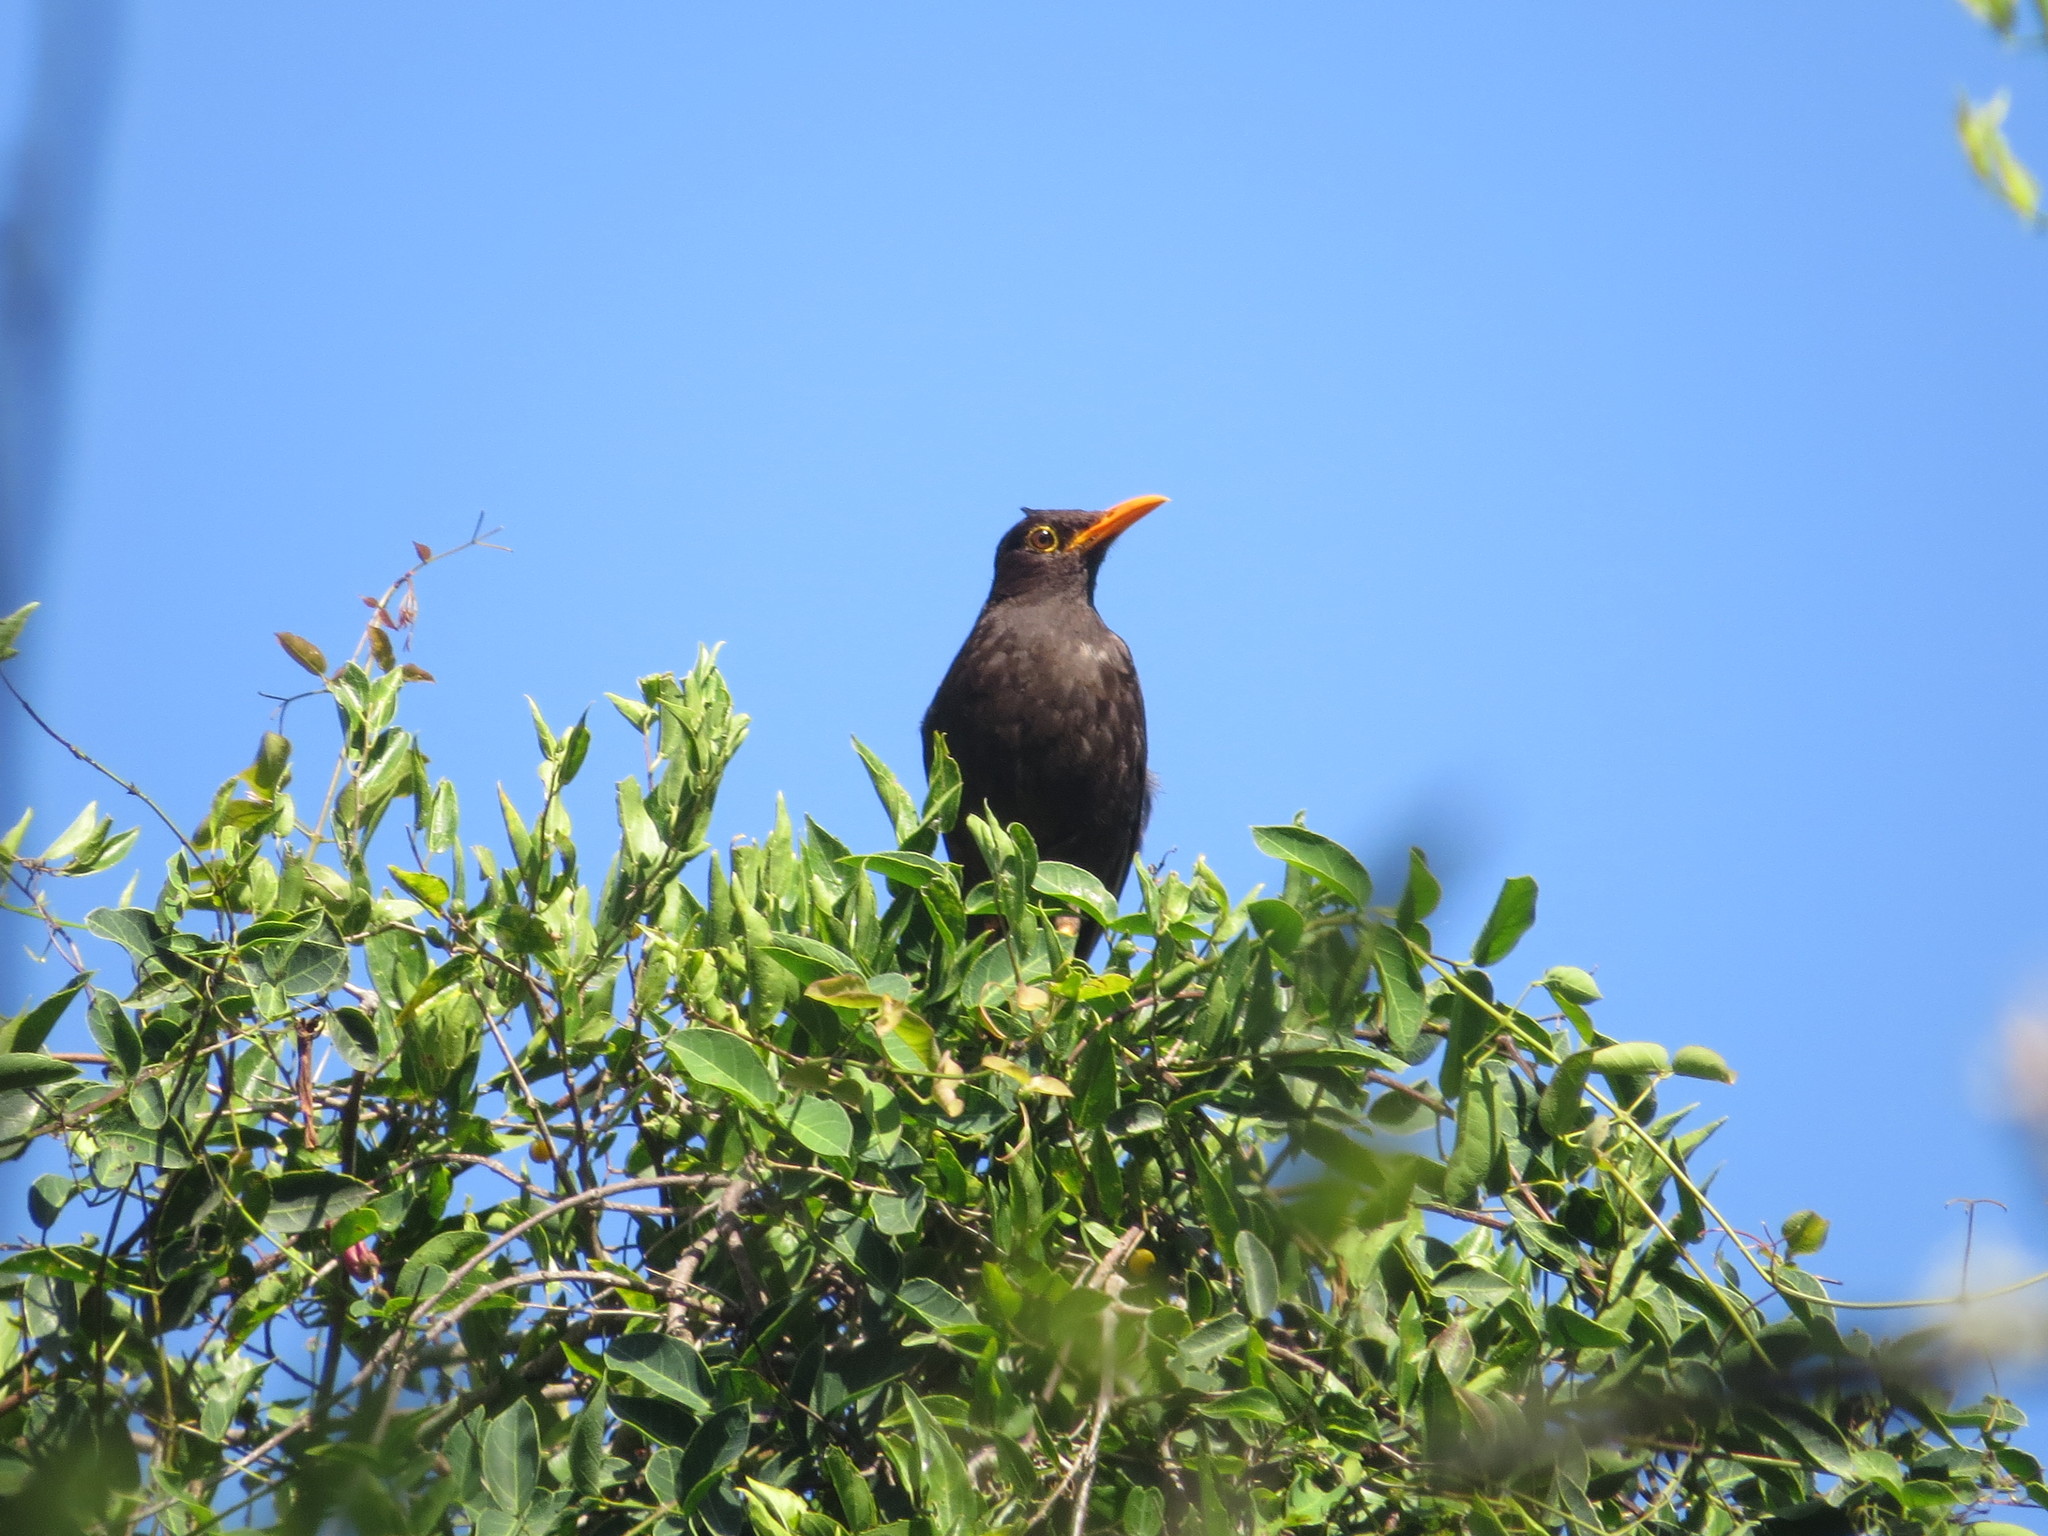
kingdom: Animalia
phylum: Chordata
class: Aves
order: Passeriformes
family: Turdidae
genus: Turdus
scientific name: Turdus chiguanco
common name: Chiguanco thrush
